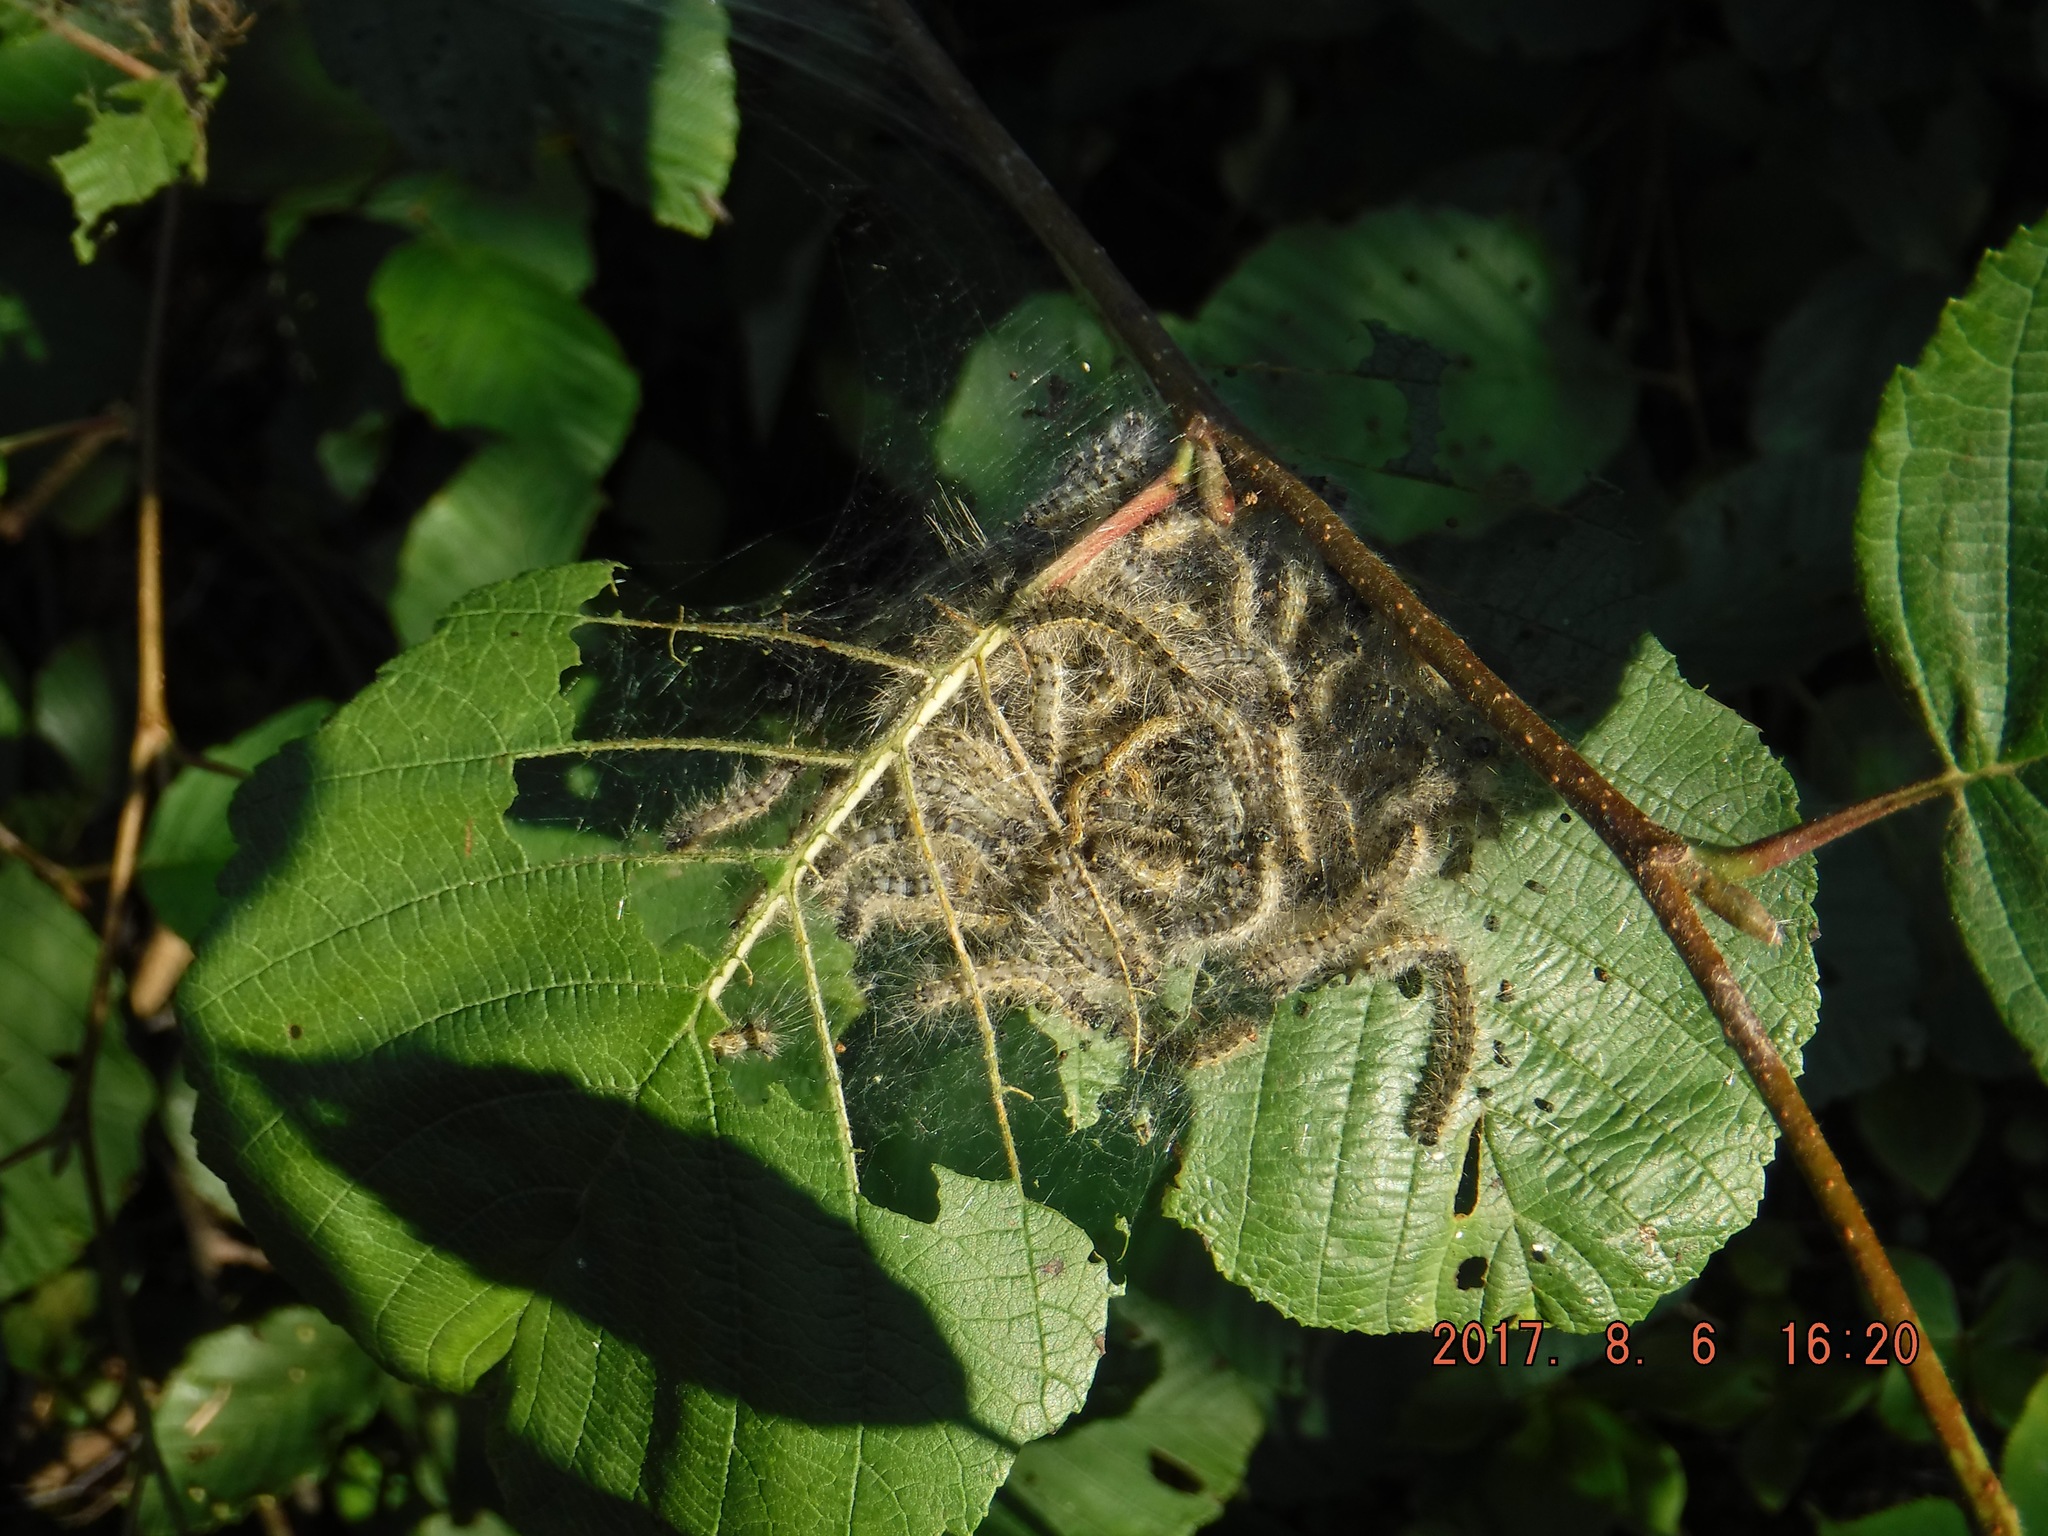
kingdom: Animalia
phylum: Arthropoda
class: Insecta
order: Lepidoptera
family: Erebidae
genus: Hyphantria
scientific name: Hyphantria cunea
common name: American white moth
